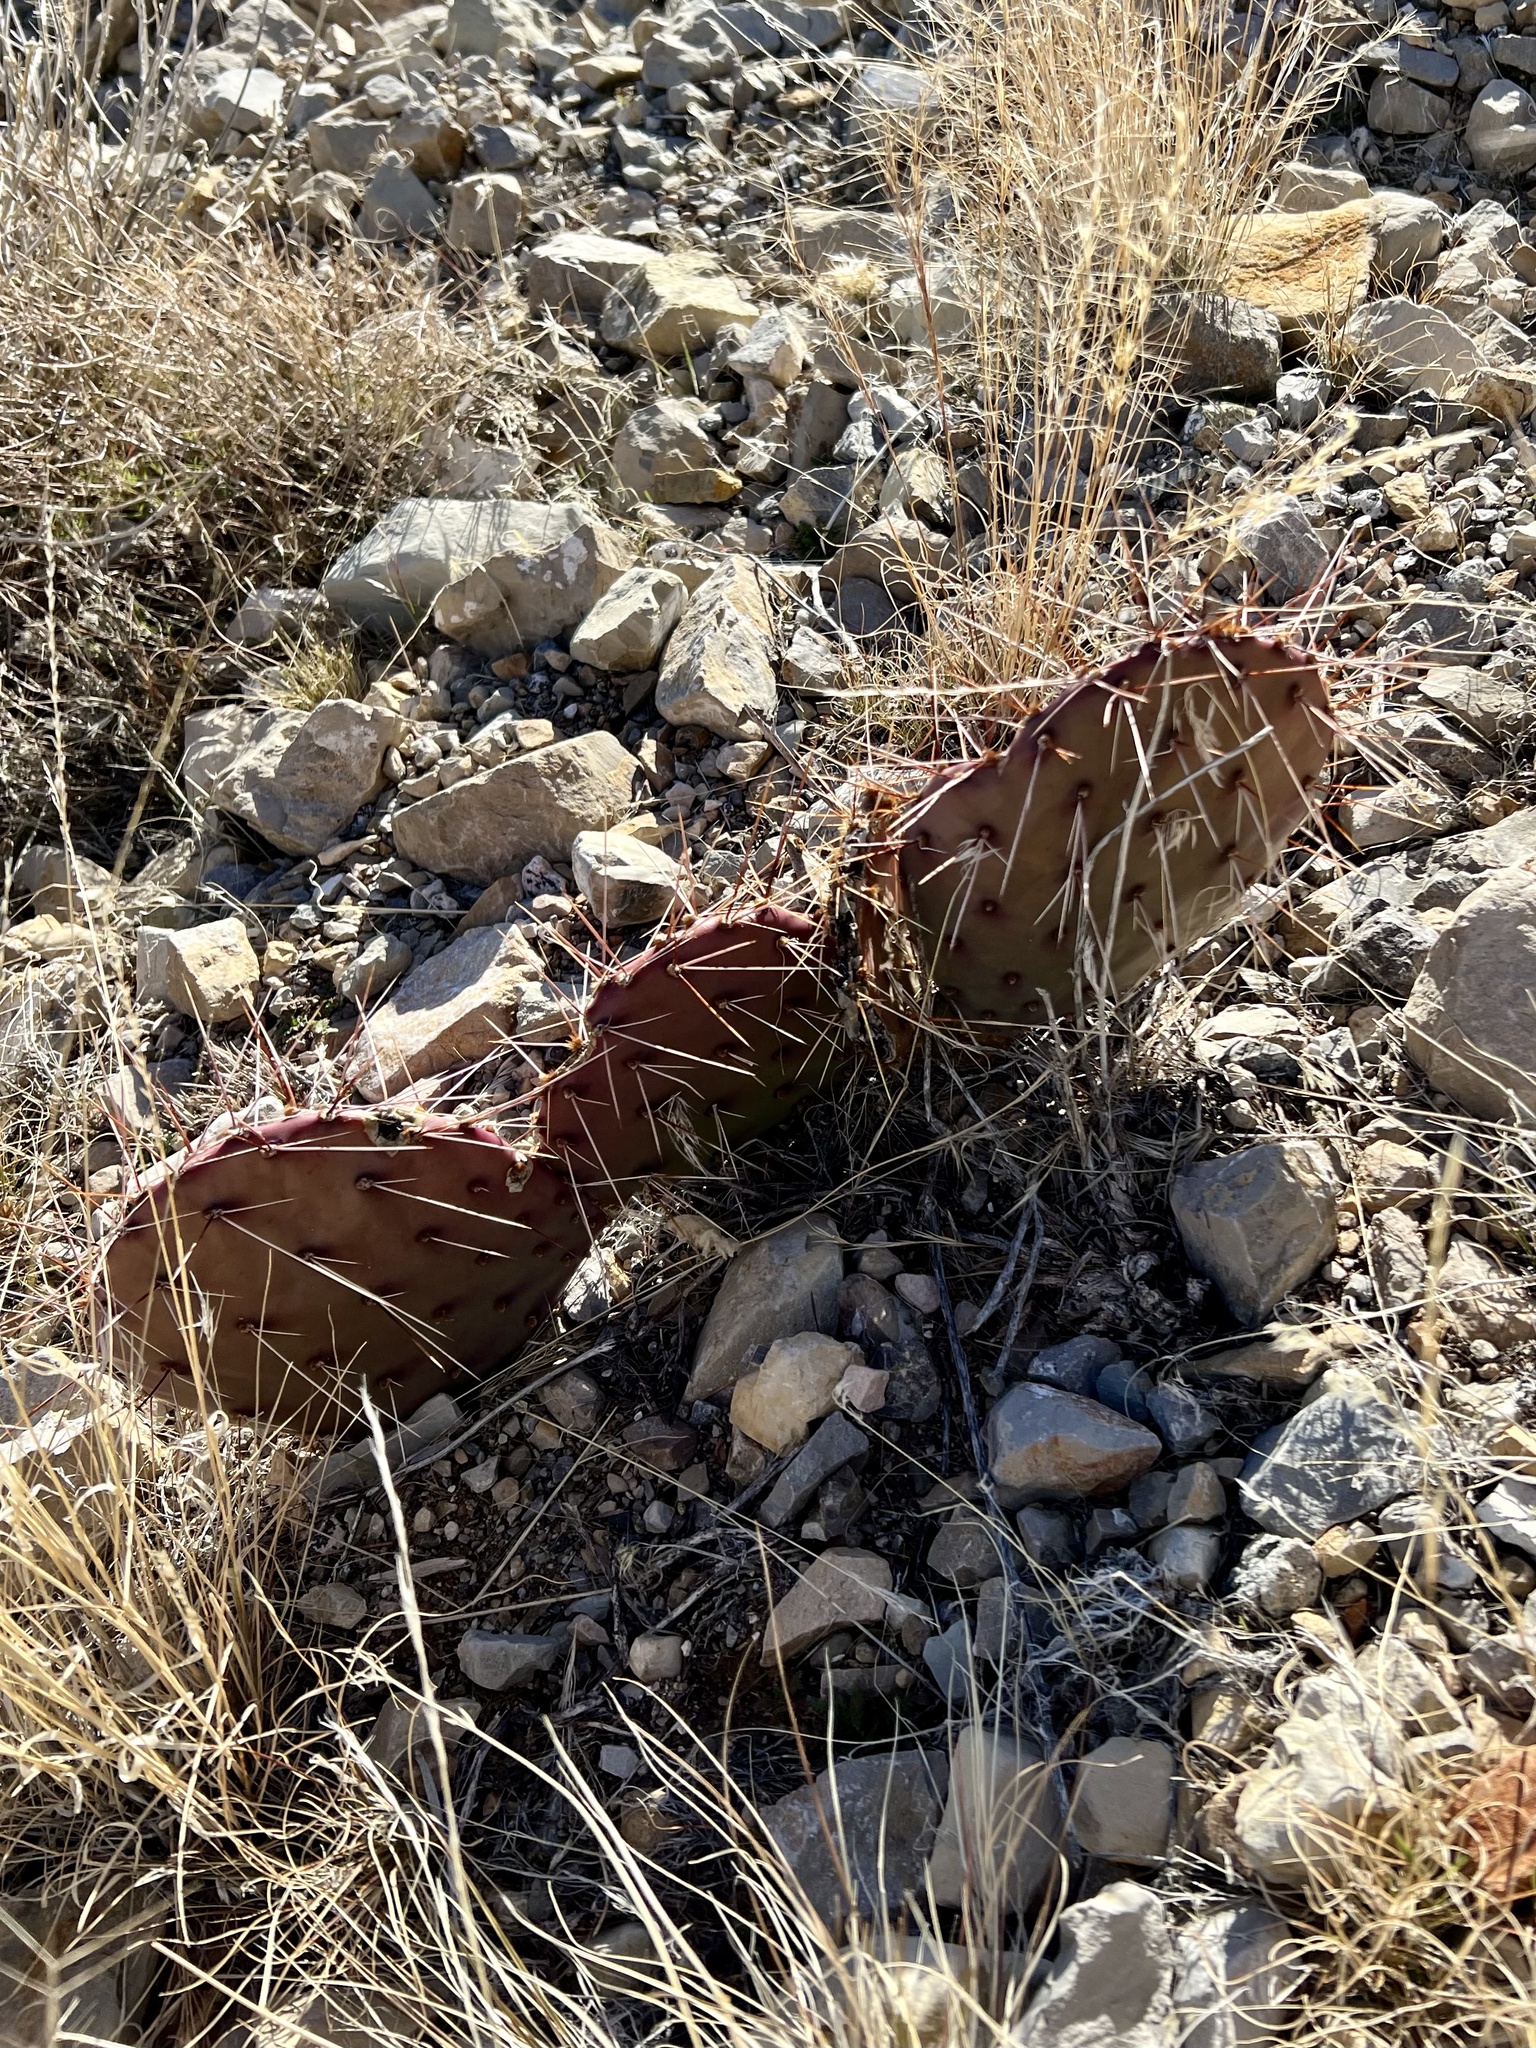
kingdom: Plantae
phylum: Tracheophyta
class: Magnoliopsida
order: Caryophyllales
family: Cactaceae
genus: Opuntia
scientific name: Opuntia phaeacantha
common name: New mexico prickly-pear
